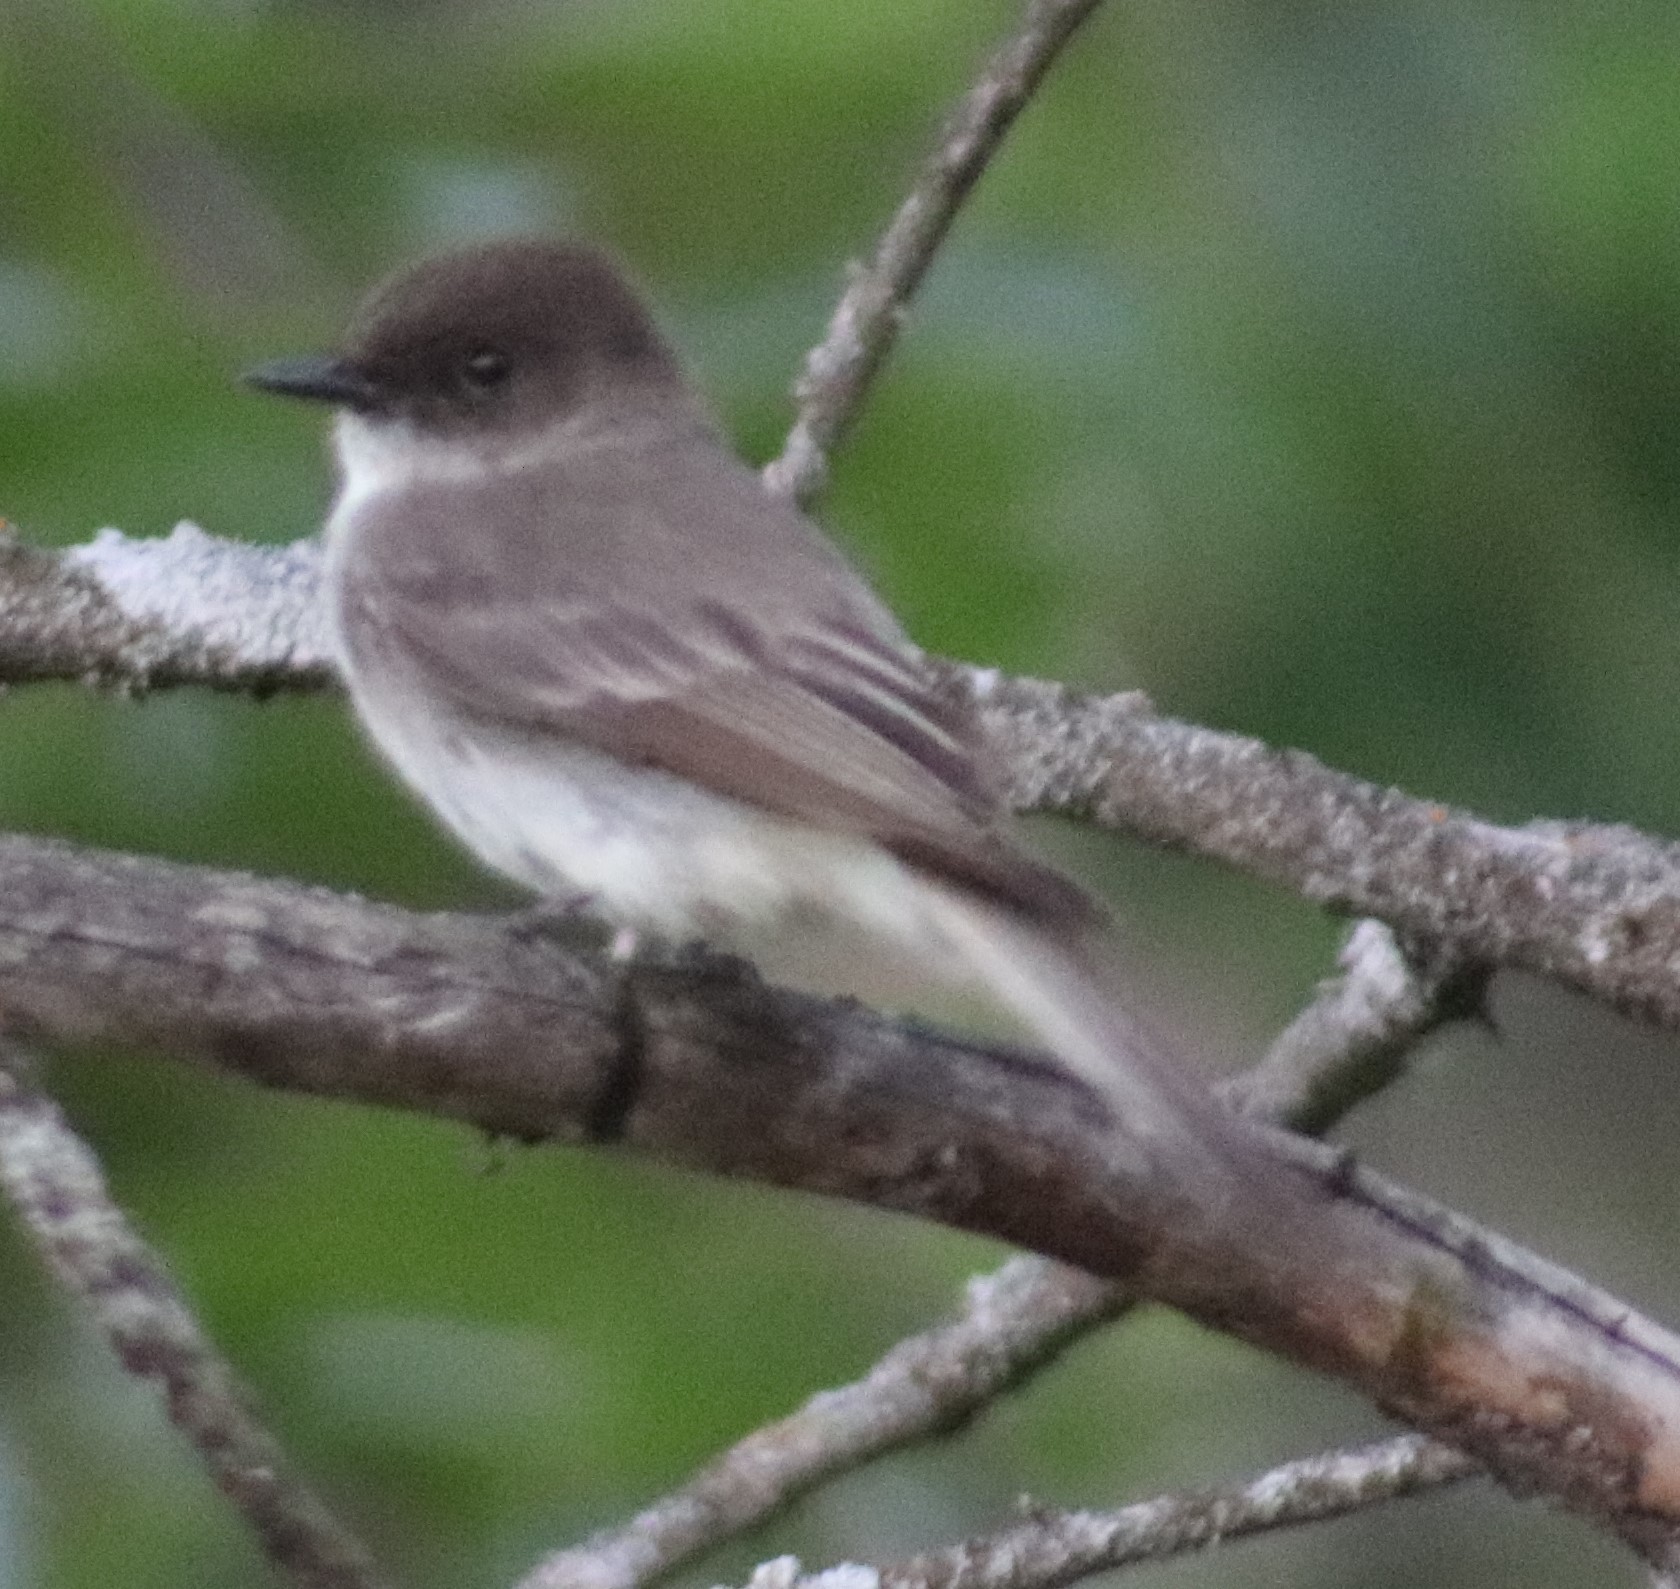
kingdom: Animalia
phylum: Chordata
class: Aves
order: Passeriformes
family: Tyrannidae
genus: Sayornis
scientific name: Sayornis phoebe
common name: Eastern phoebe
